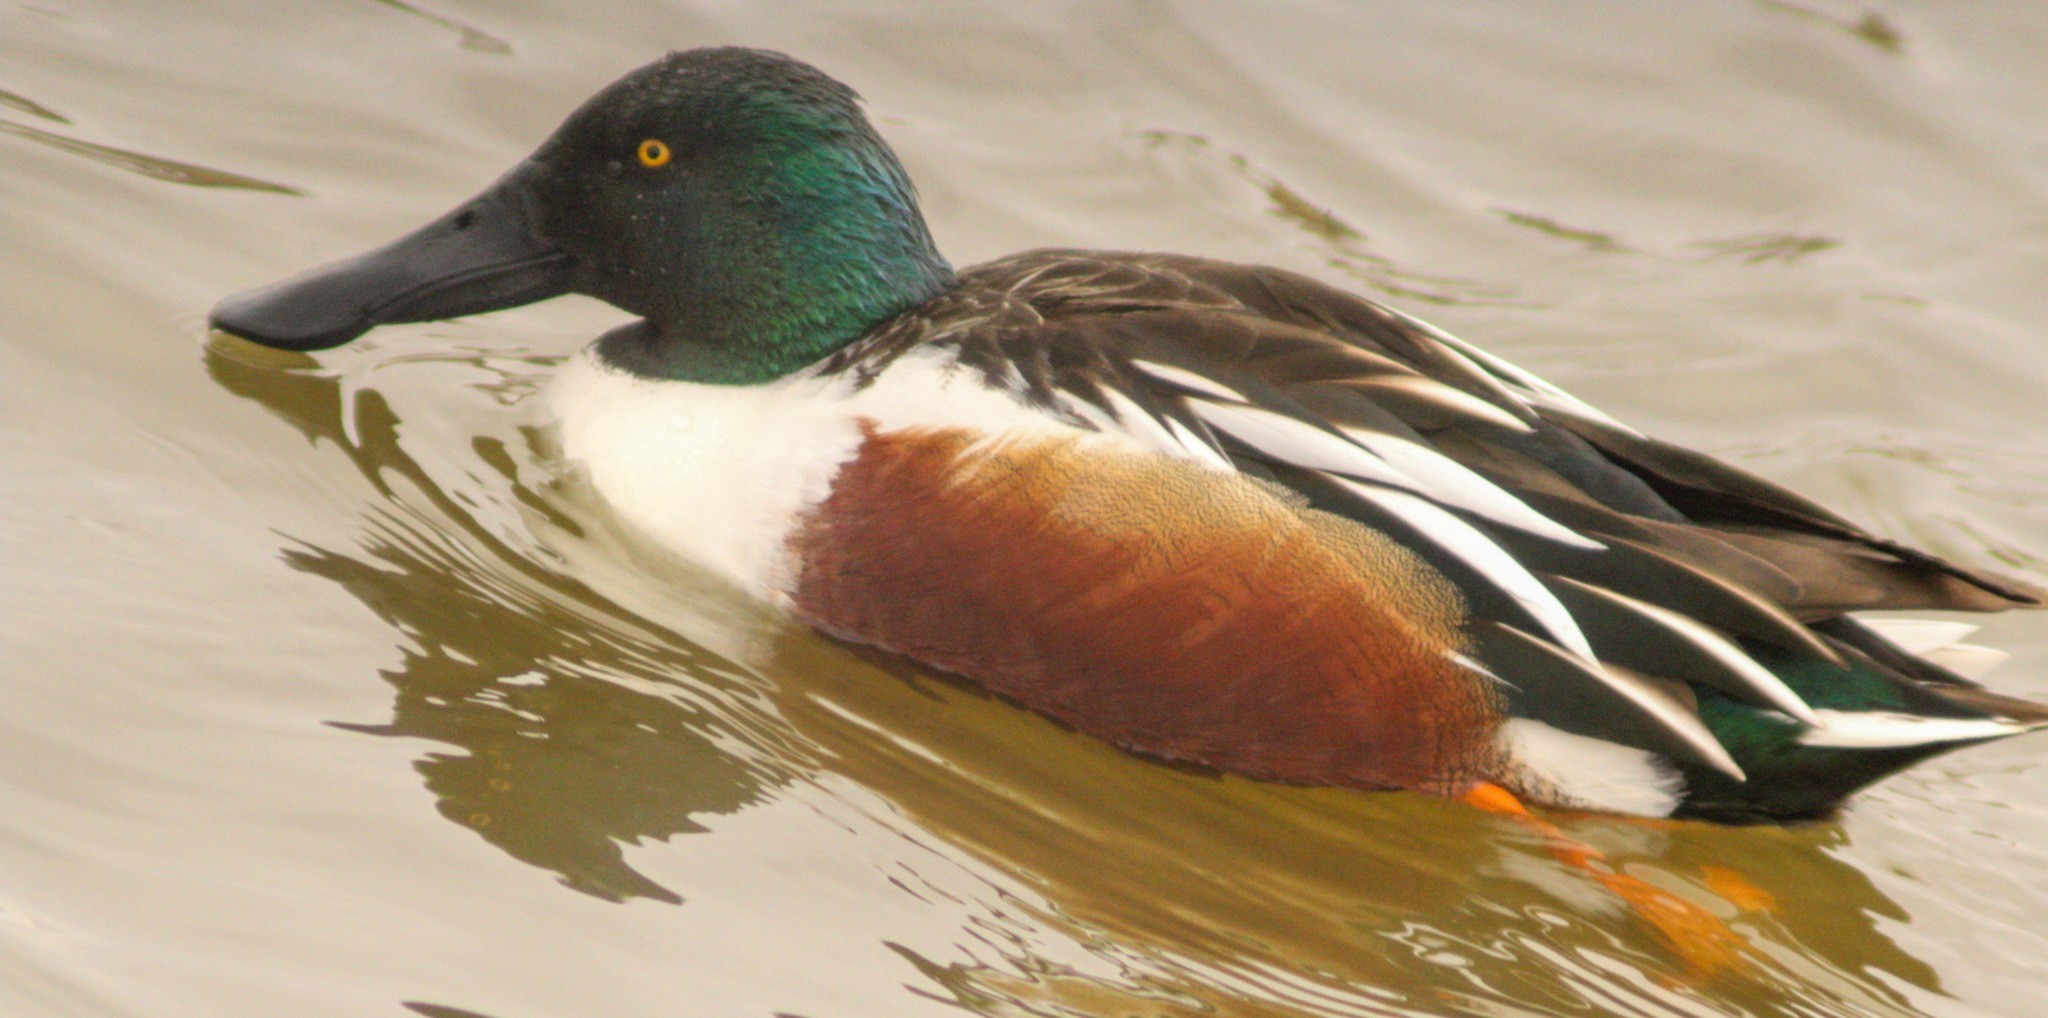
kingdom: Animalia
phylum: Chordata
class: Aves
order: Anseriformes
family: Anatidae
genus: Spatula
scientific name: Spatula clypeata
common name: Northern shoveler
